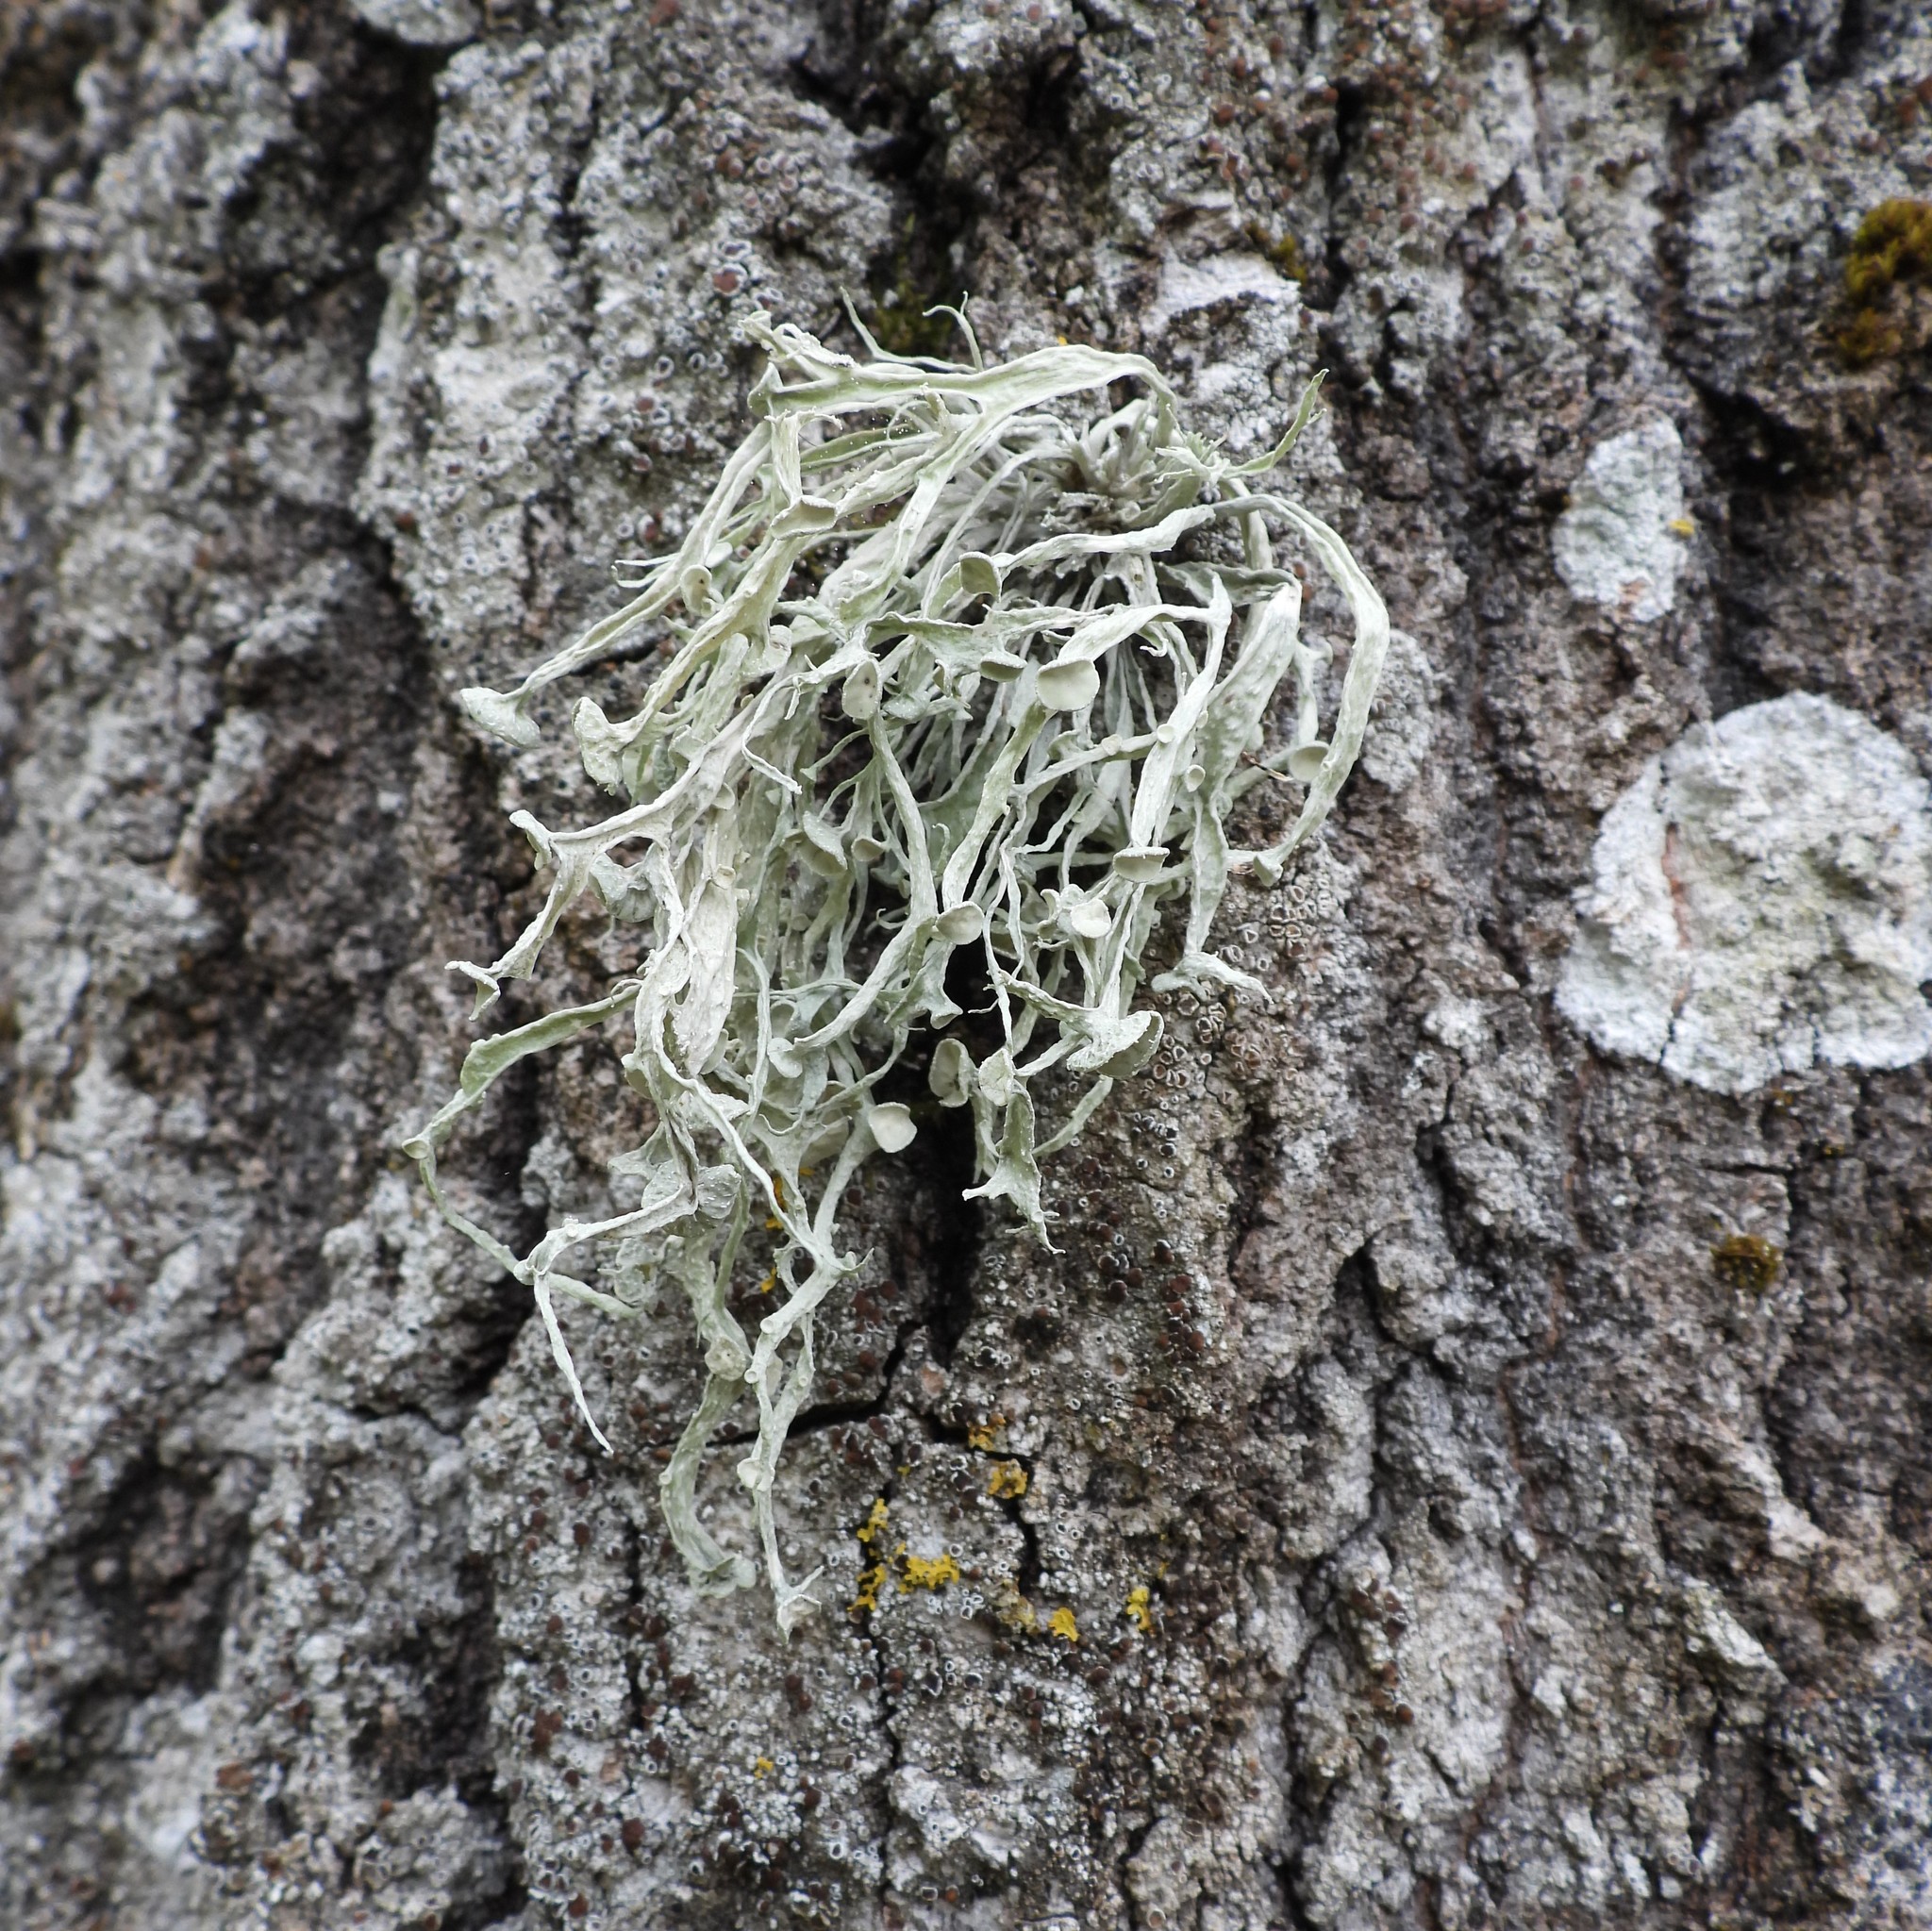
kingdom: Fungi
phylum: Ascomycota
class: Lecanoromycetes
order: Lecanorales
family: Ramalinaceae
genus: Ramalina
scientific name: Ramalina fraxinea
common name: Cartilage lichen
